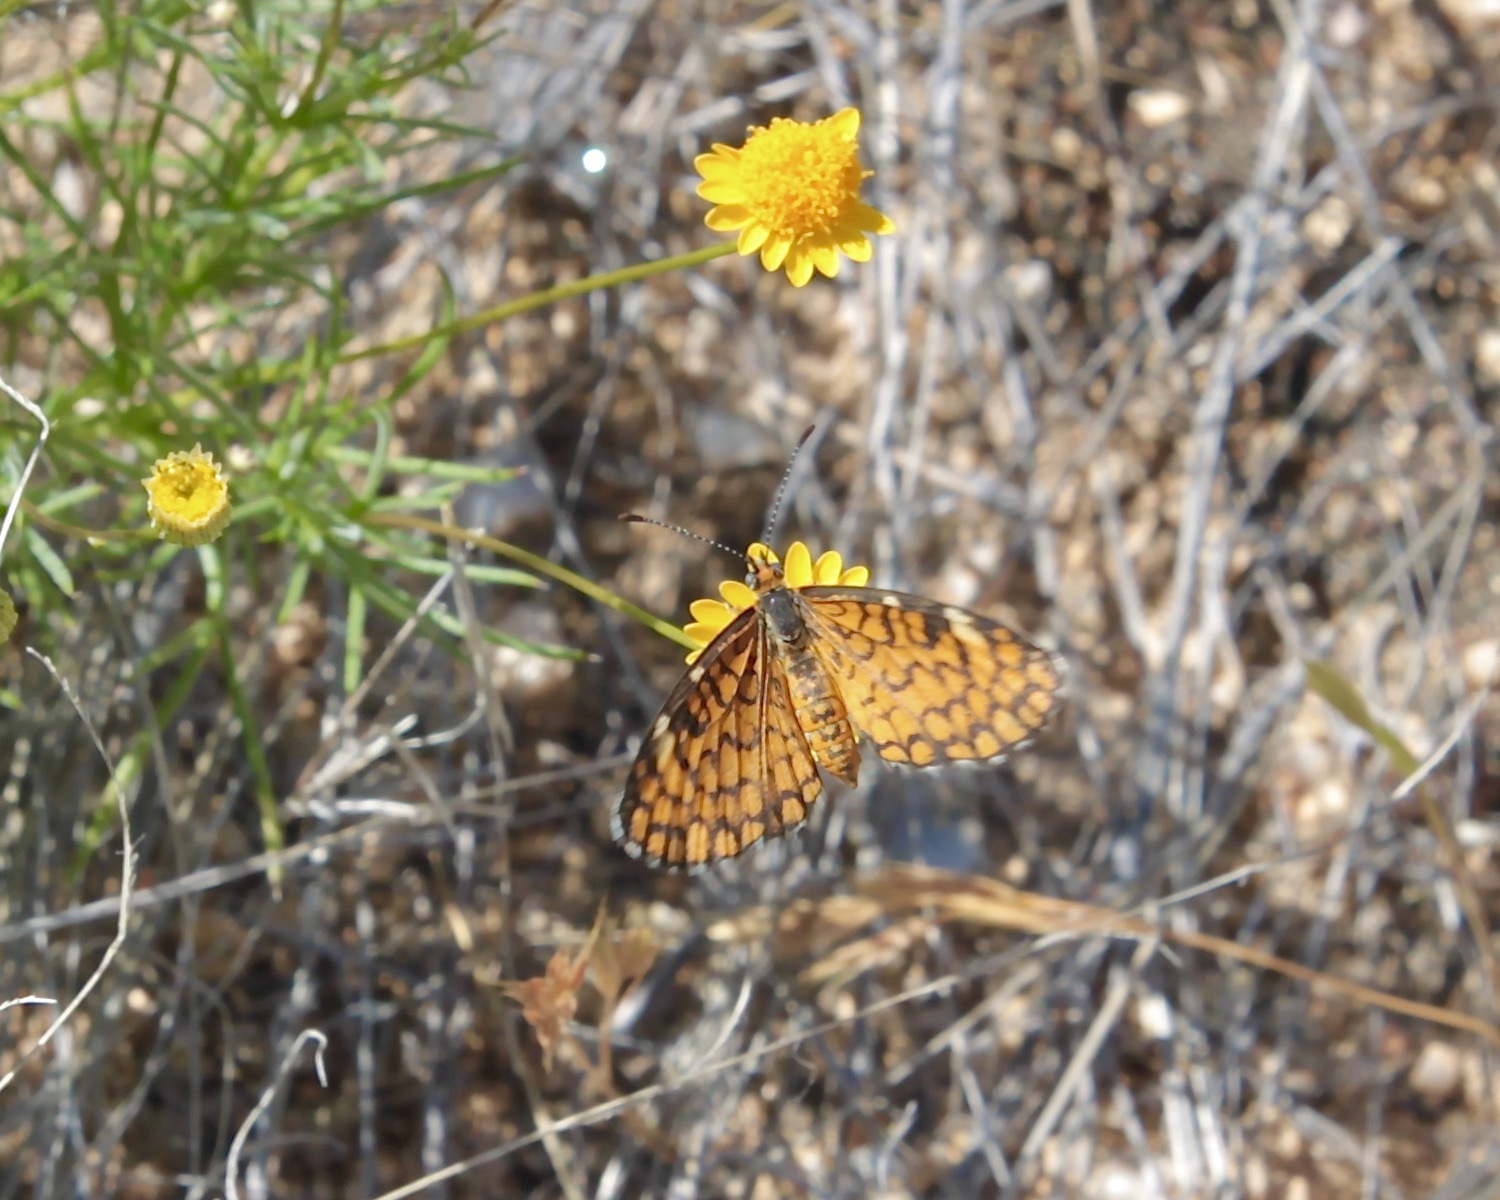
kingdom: Animalia
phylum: Arthropoda
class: Insecta
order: Lepidoptera
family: Nymphalidae
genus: Dymasia
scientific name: Dymasia dymas
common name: Tiny checkerspot
